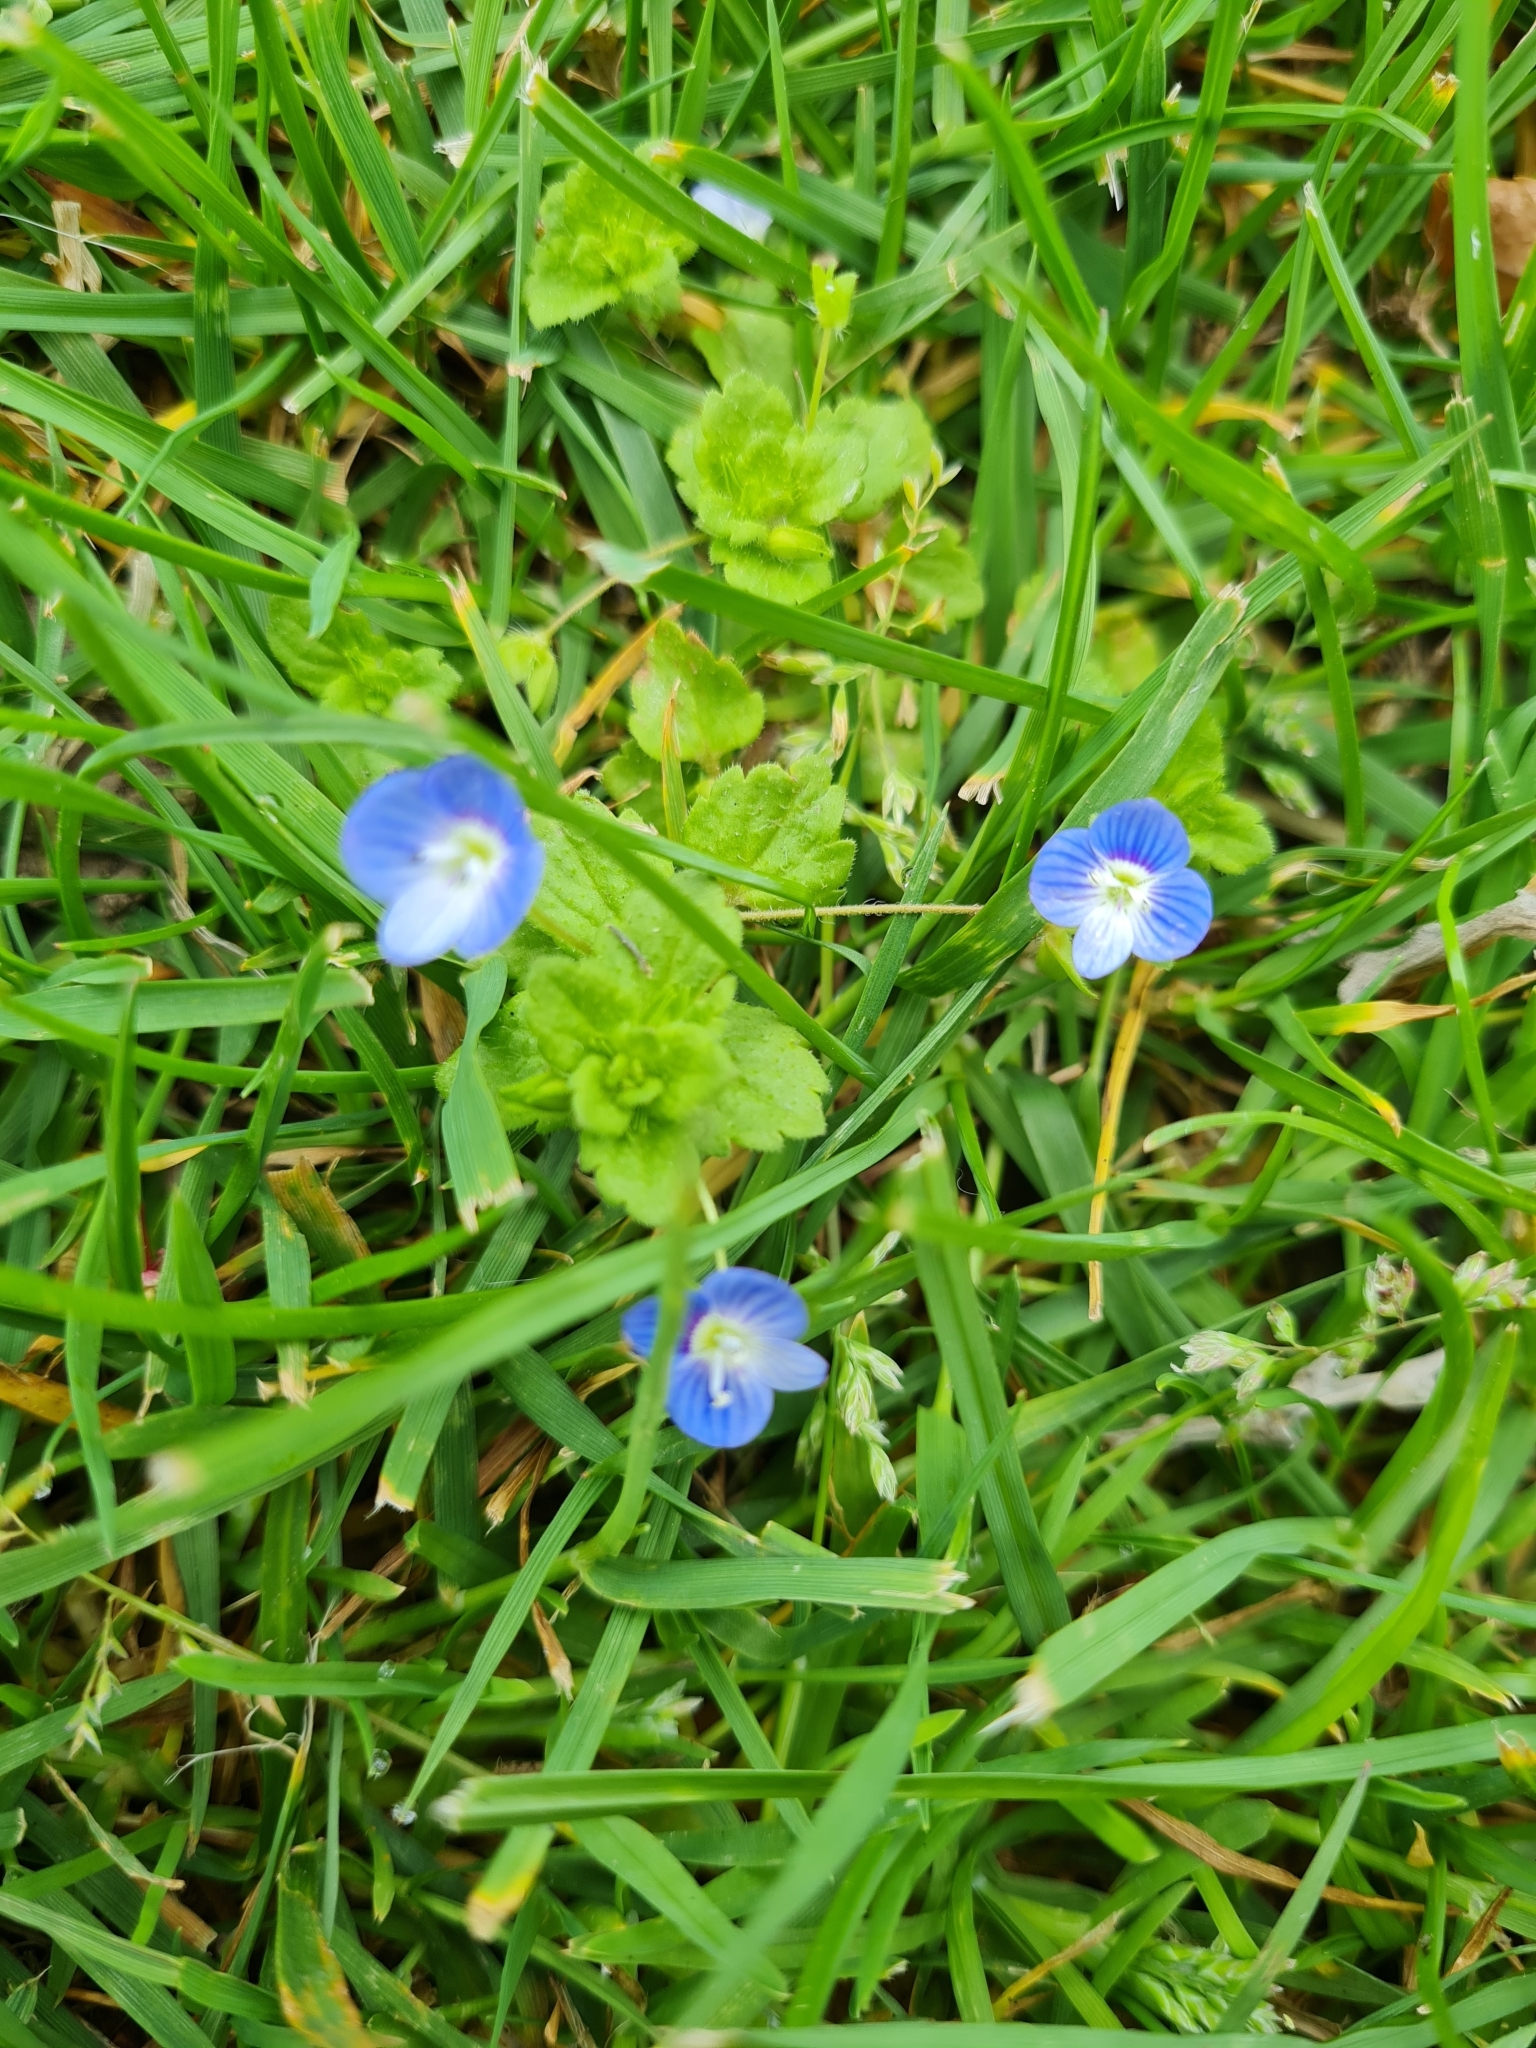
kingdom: Plantae
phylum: Tracheophyta
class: Magnoliopsida
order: Lamiales
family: Plantaginaceae
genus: Veronica
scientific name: Veronica persica
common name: Common field-speedwell
